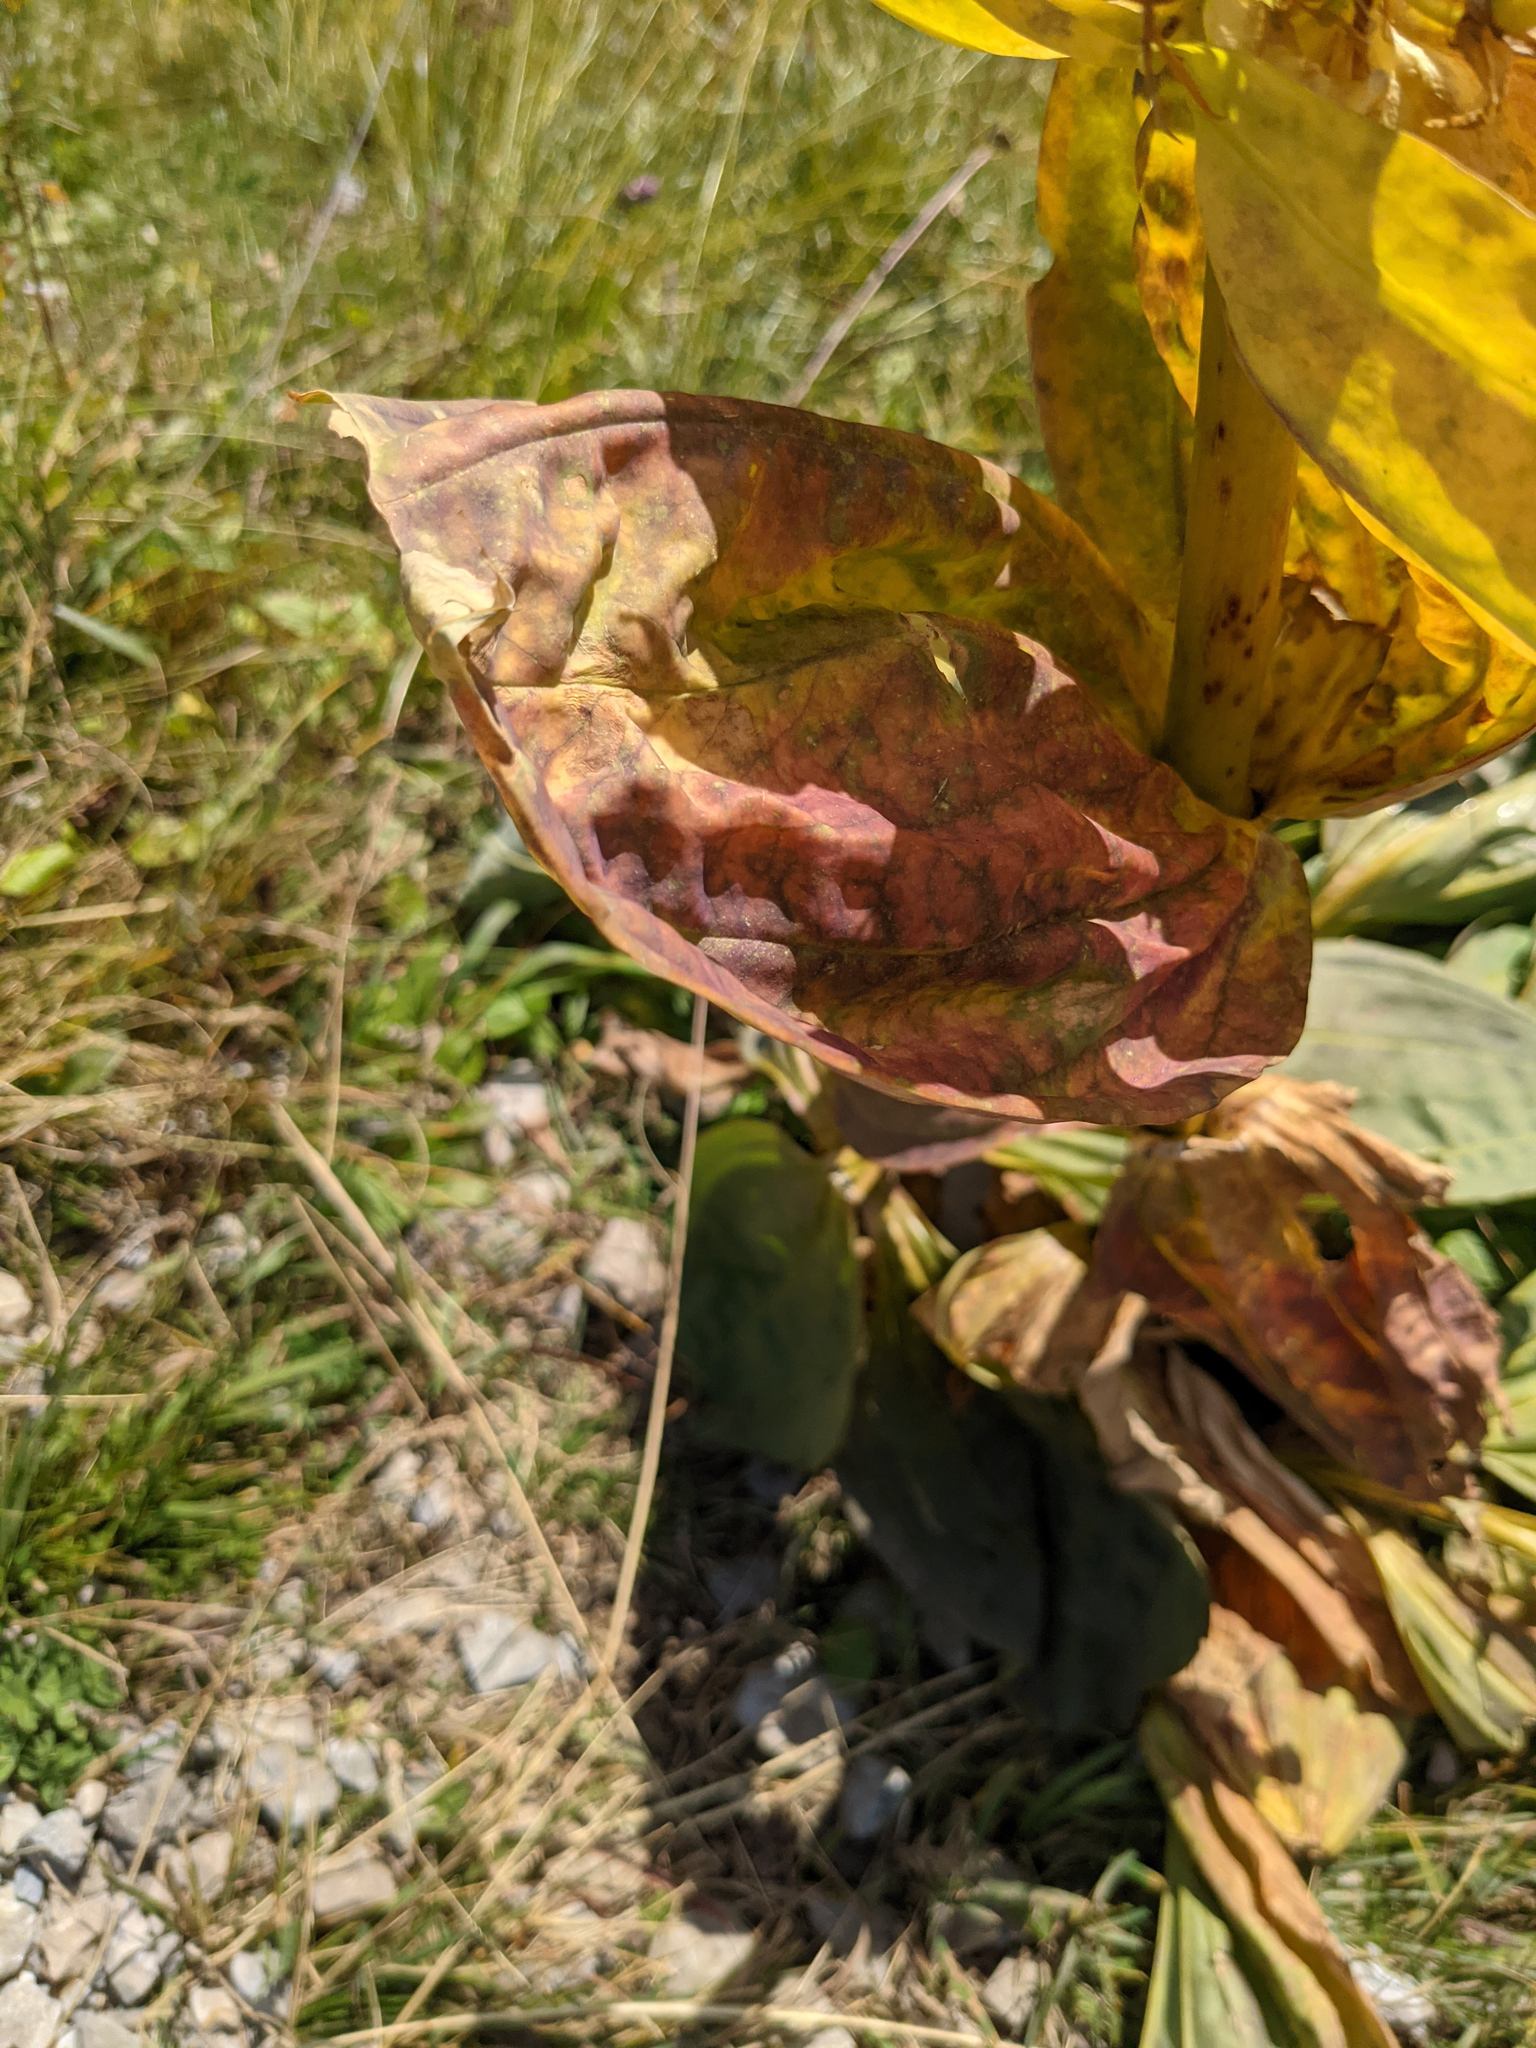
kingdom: Plantae
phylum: Tracheophyta
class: Magnoliopsida
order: Gentianales
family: Gentianaceae
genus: Gentiana
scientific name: Gentiana lutea
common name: Great yellow gentian
